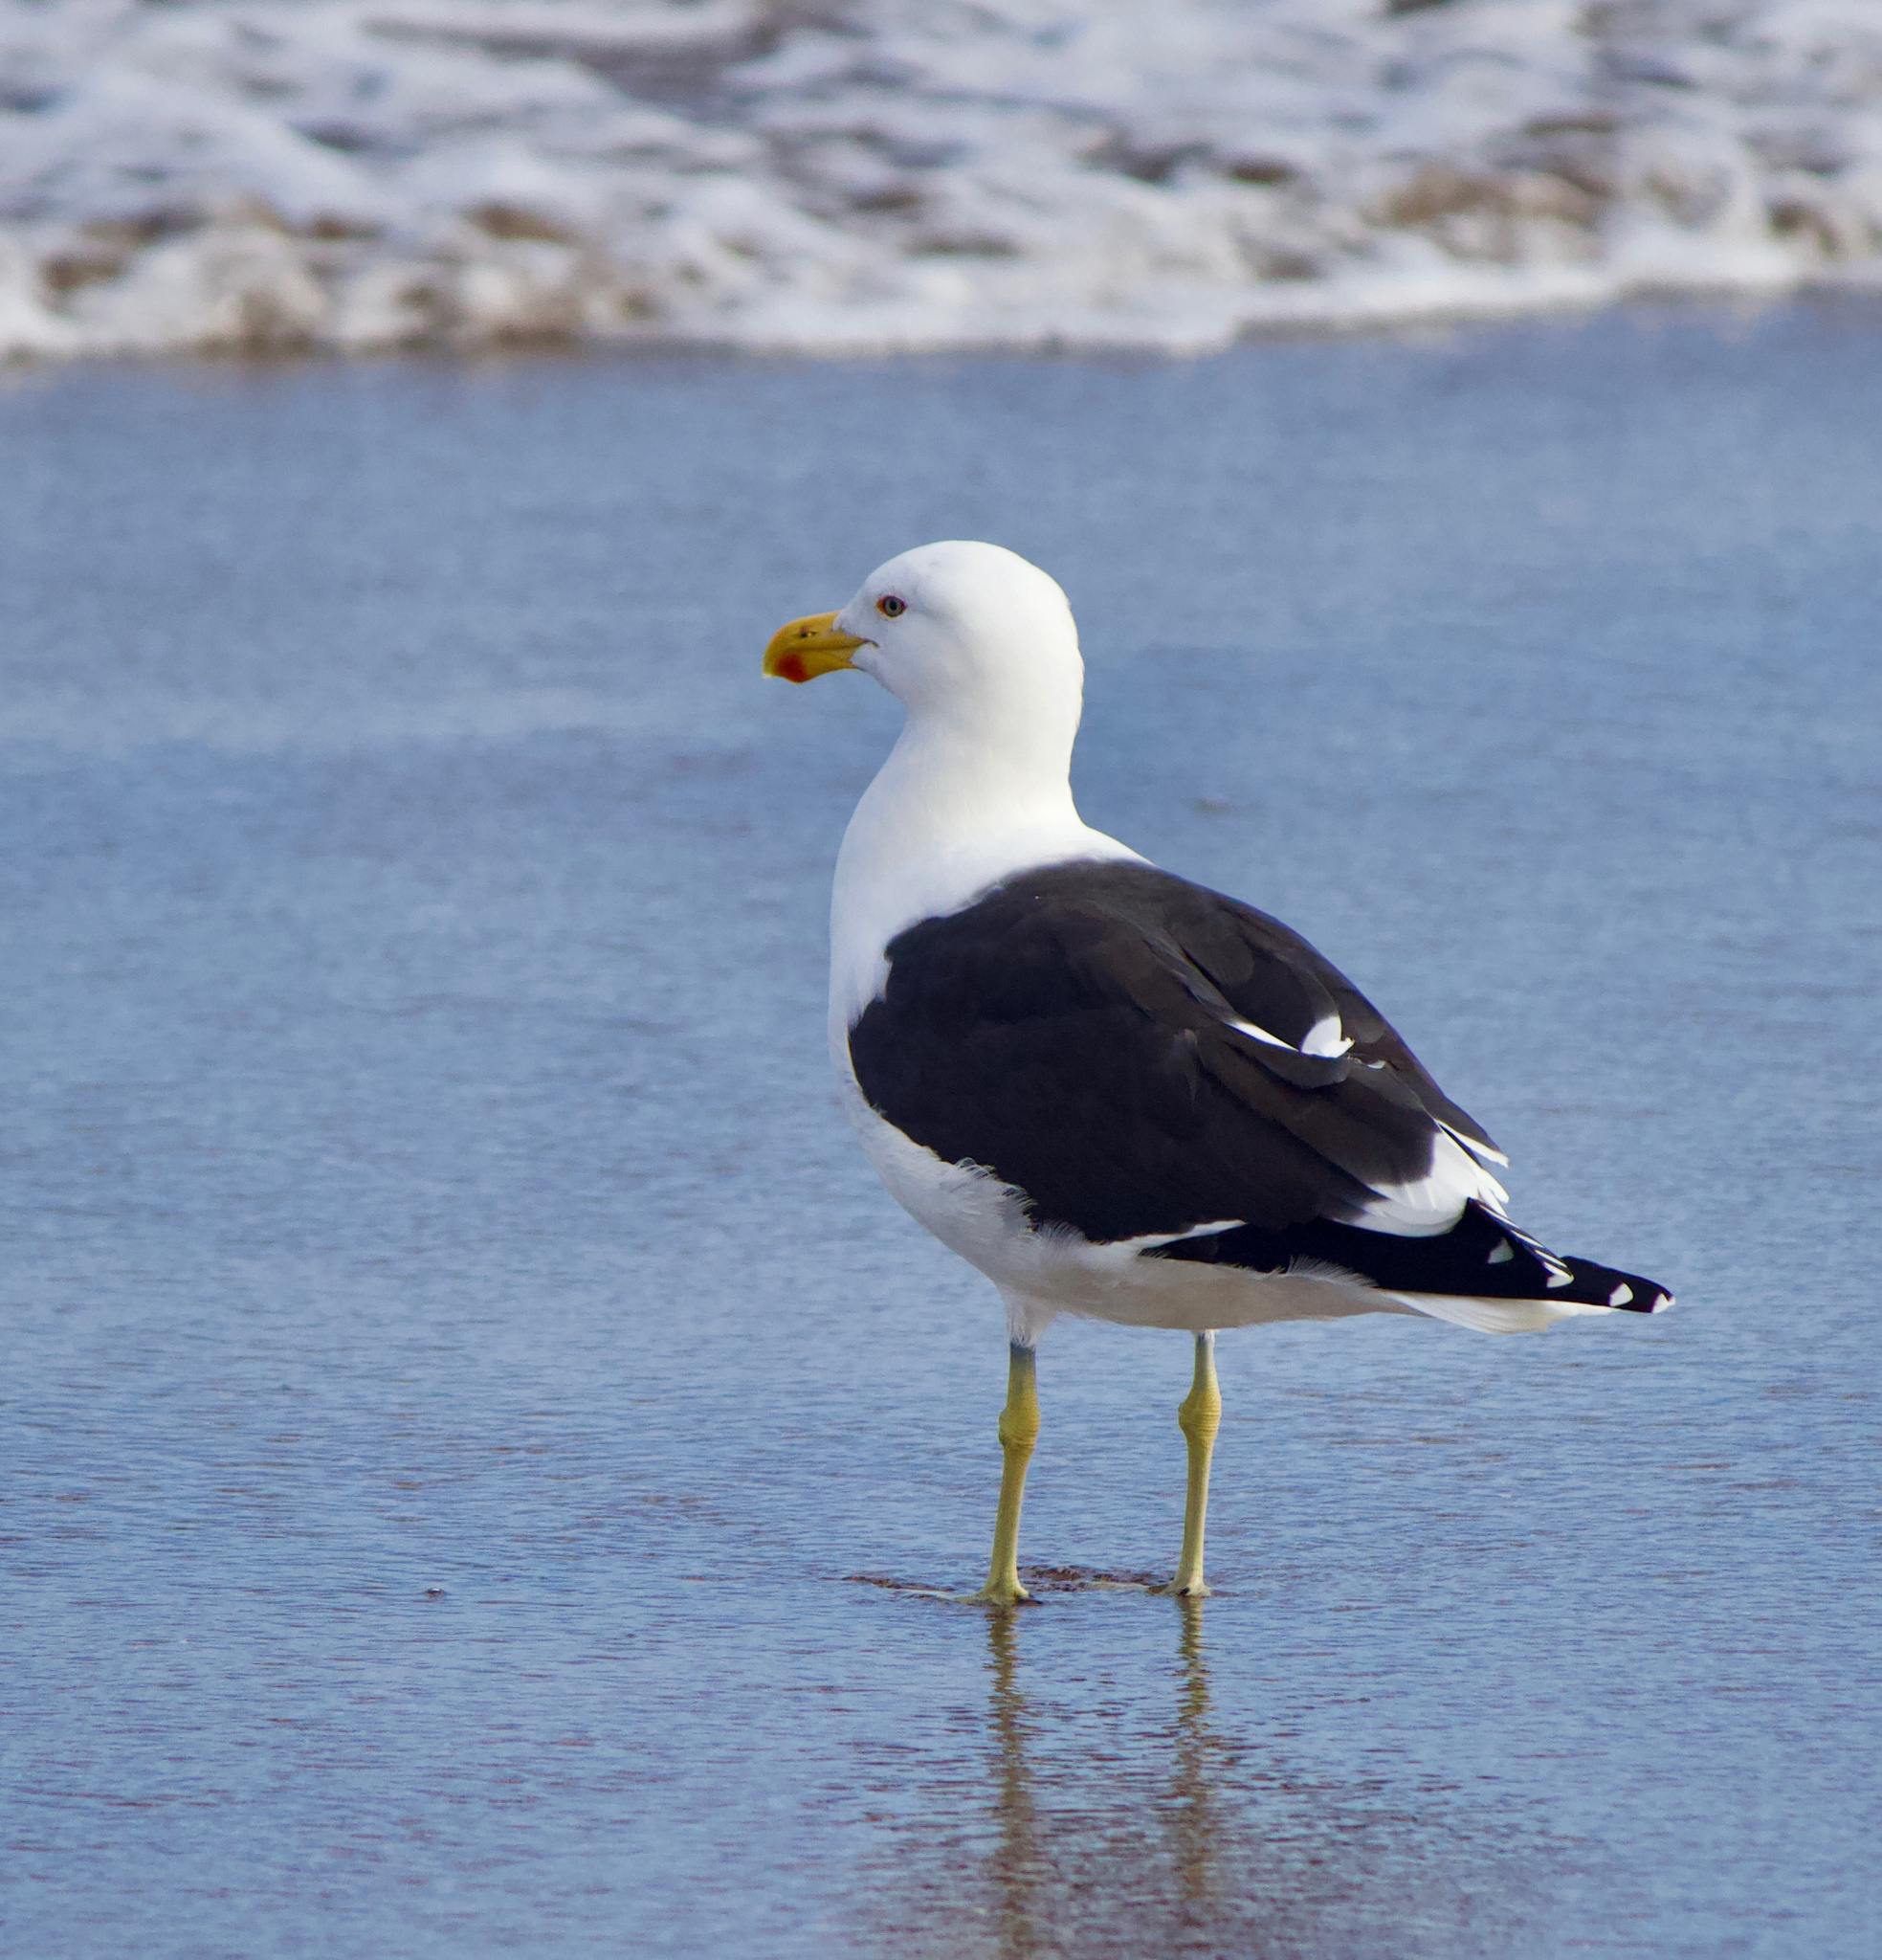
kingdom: Animalia
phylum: Chordata
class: Aves
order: Charadriiformes
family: Laridae
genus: Larus
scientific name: Larus dominicanus
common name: Kelp gull
